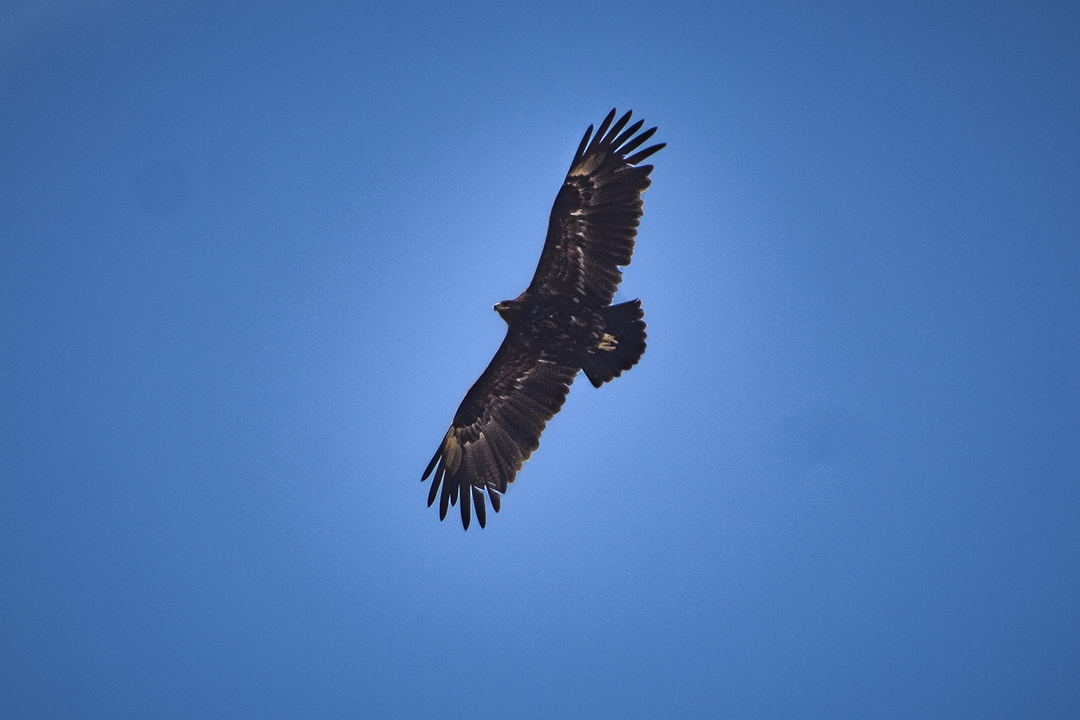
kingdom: Animalia
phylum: Chordata
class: Aves
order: Accipitriformes
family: Accipitridae
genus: Aquila
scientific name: Aquila clanga
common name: Greater spotted eagle
